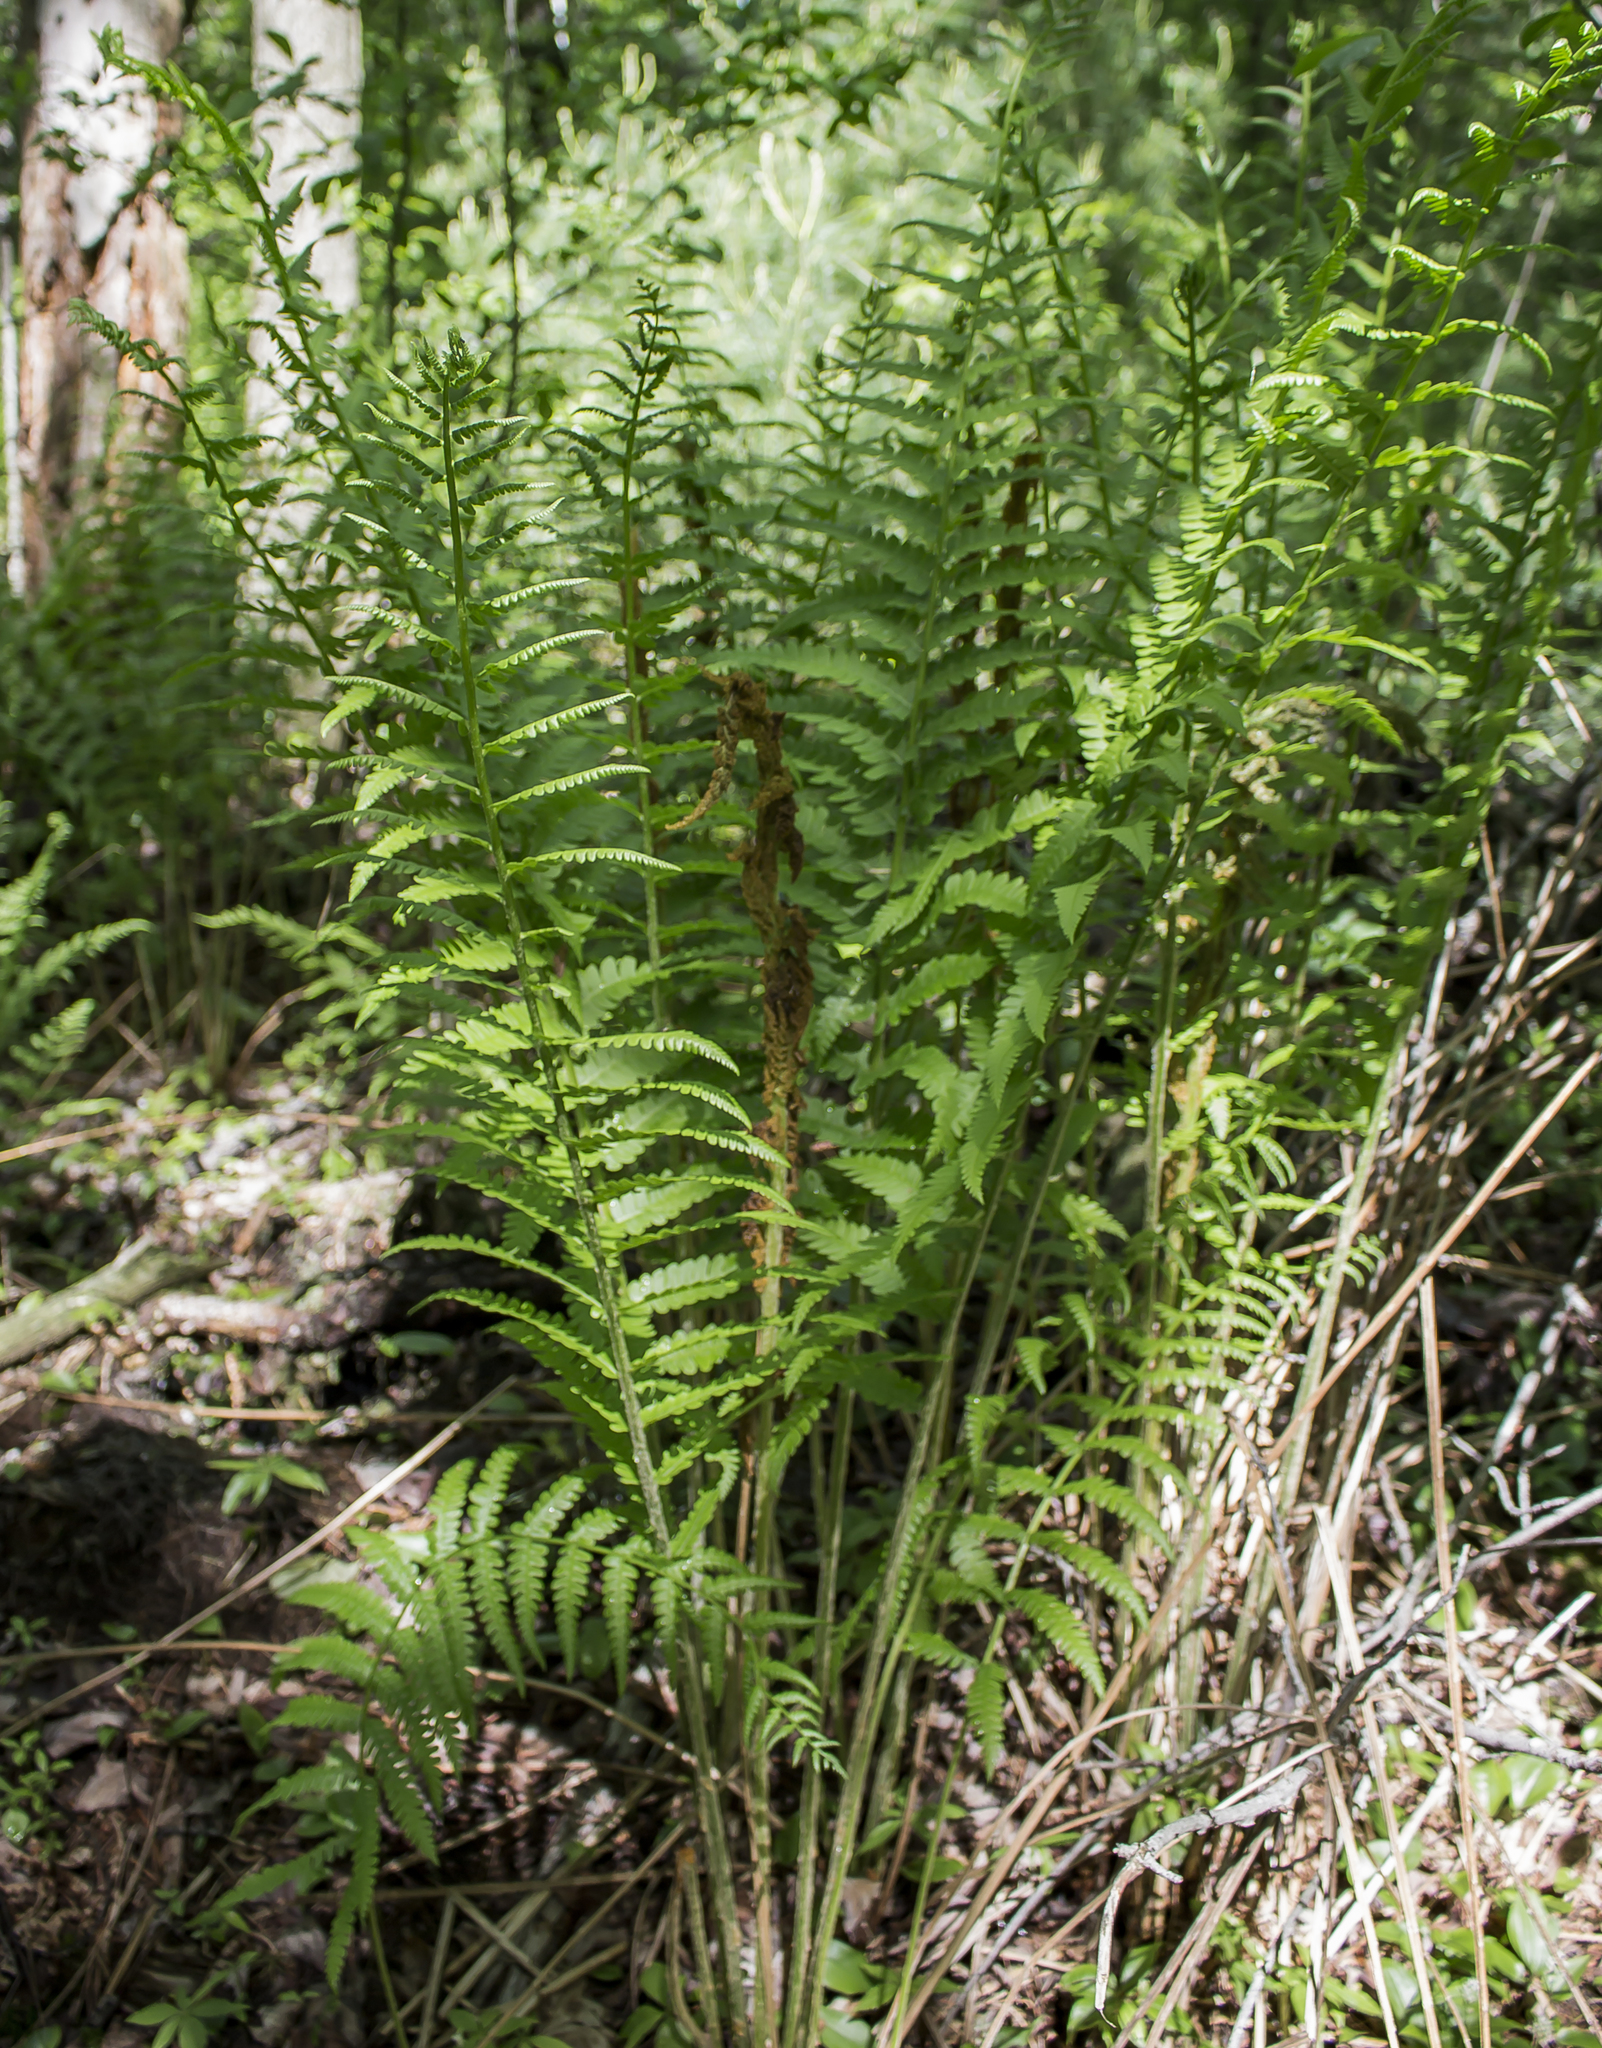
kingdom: Plantae
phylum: Tracheophyta
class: Polypodiopsida
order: Osmundales
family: Osmundaceae
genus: Osmundastrum
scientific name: Osmundastrum cinnamomeum
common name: Cinnamon fern
